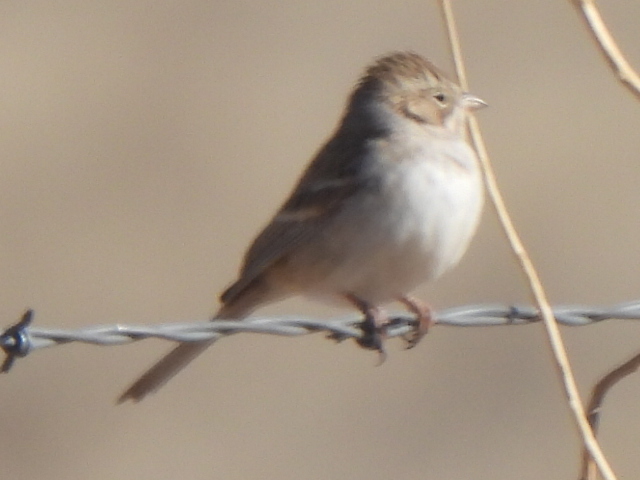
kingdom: Animalia
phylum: Chordata
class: Aves
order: Passeriformes
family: Passerellidae
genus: Spizella
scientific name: Spizella breweri
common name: Brewer's sparrow
